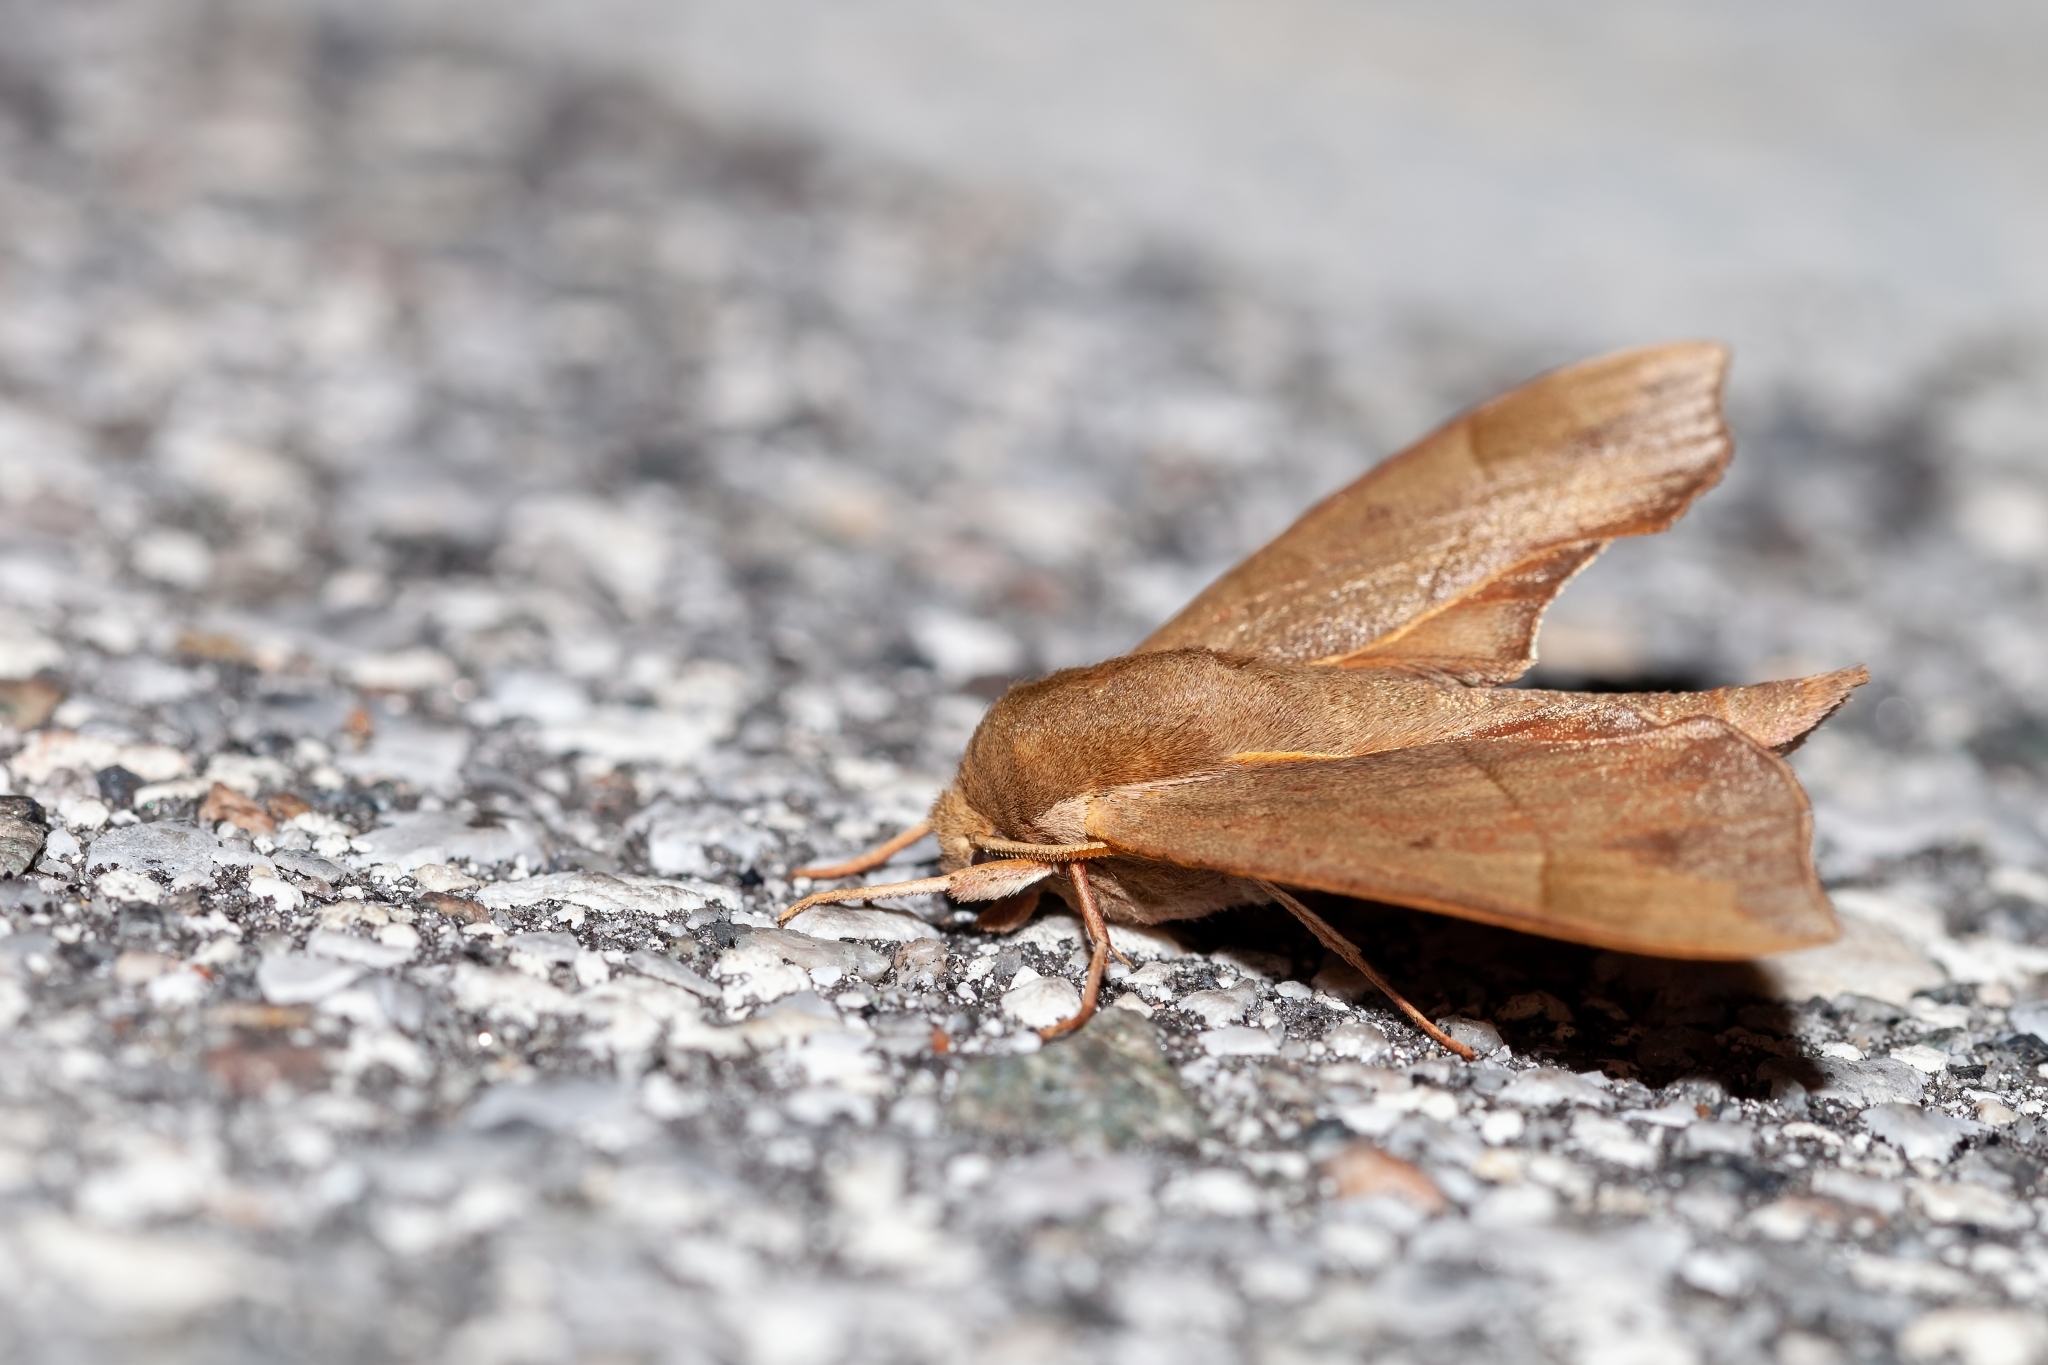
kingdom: Animalia
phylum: Arthropoda
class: Insecta
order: Lepidoptera
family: Sphingidae
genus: Darapsa
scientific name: Darapsa myron
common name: Hog sphinx
